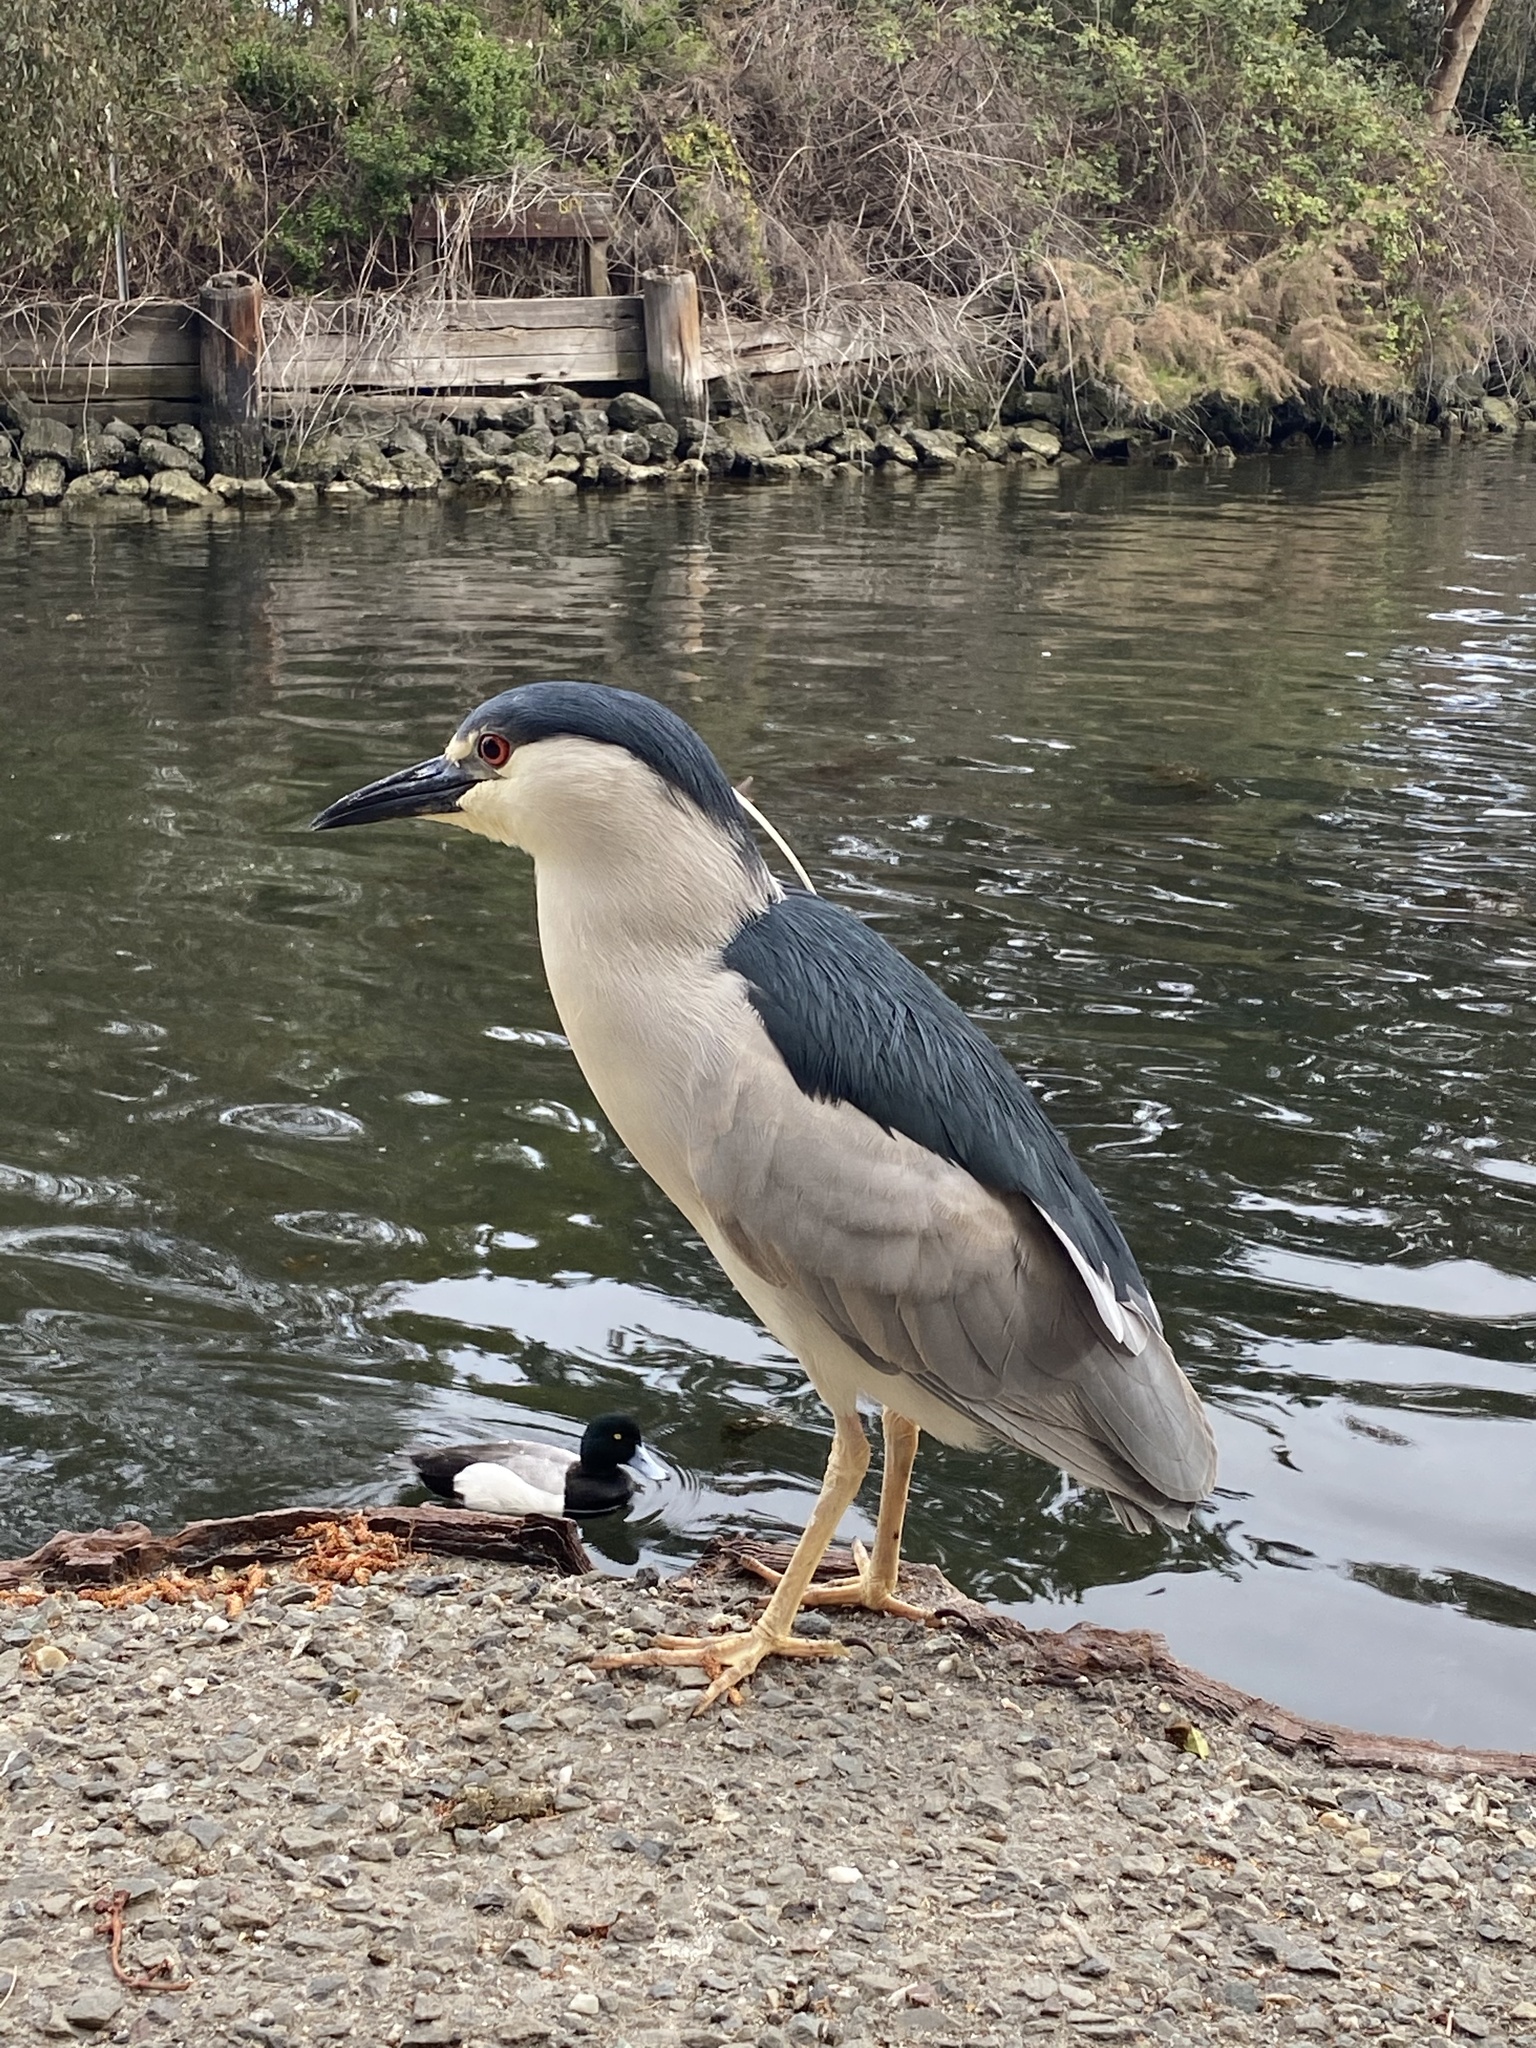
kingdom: Animalia
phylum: Chordata
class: Aves
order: Pelecaniformes
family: Ardeidae
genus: Nycticorax
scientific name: Nycticorax nycticorax
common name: Black-crowned night heron
